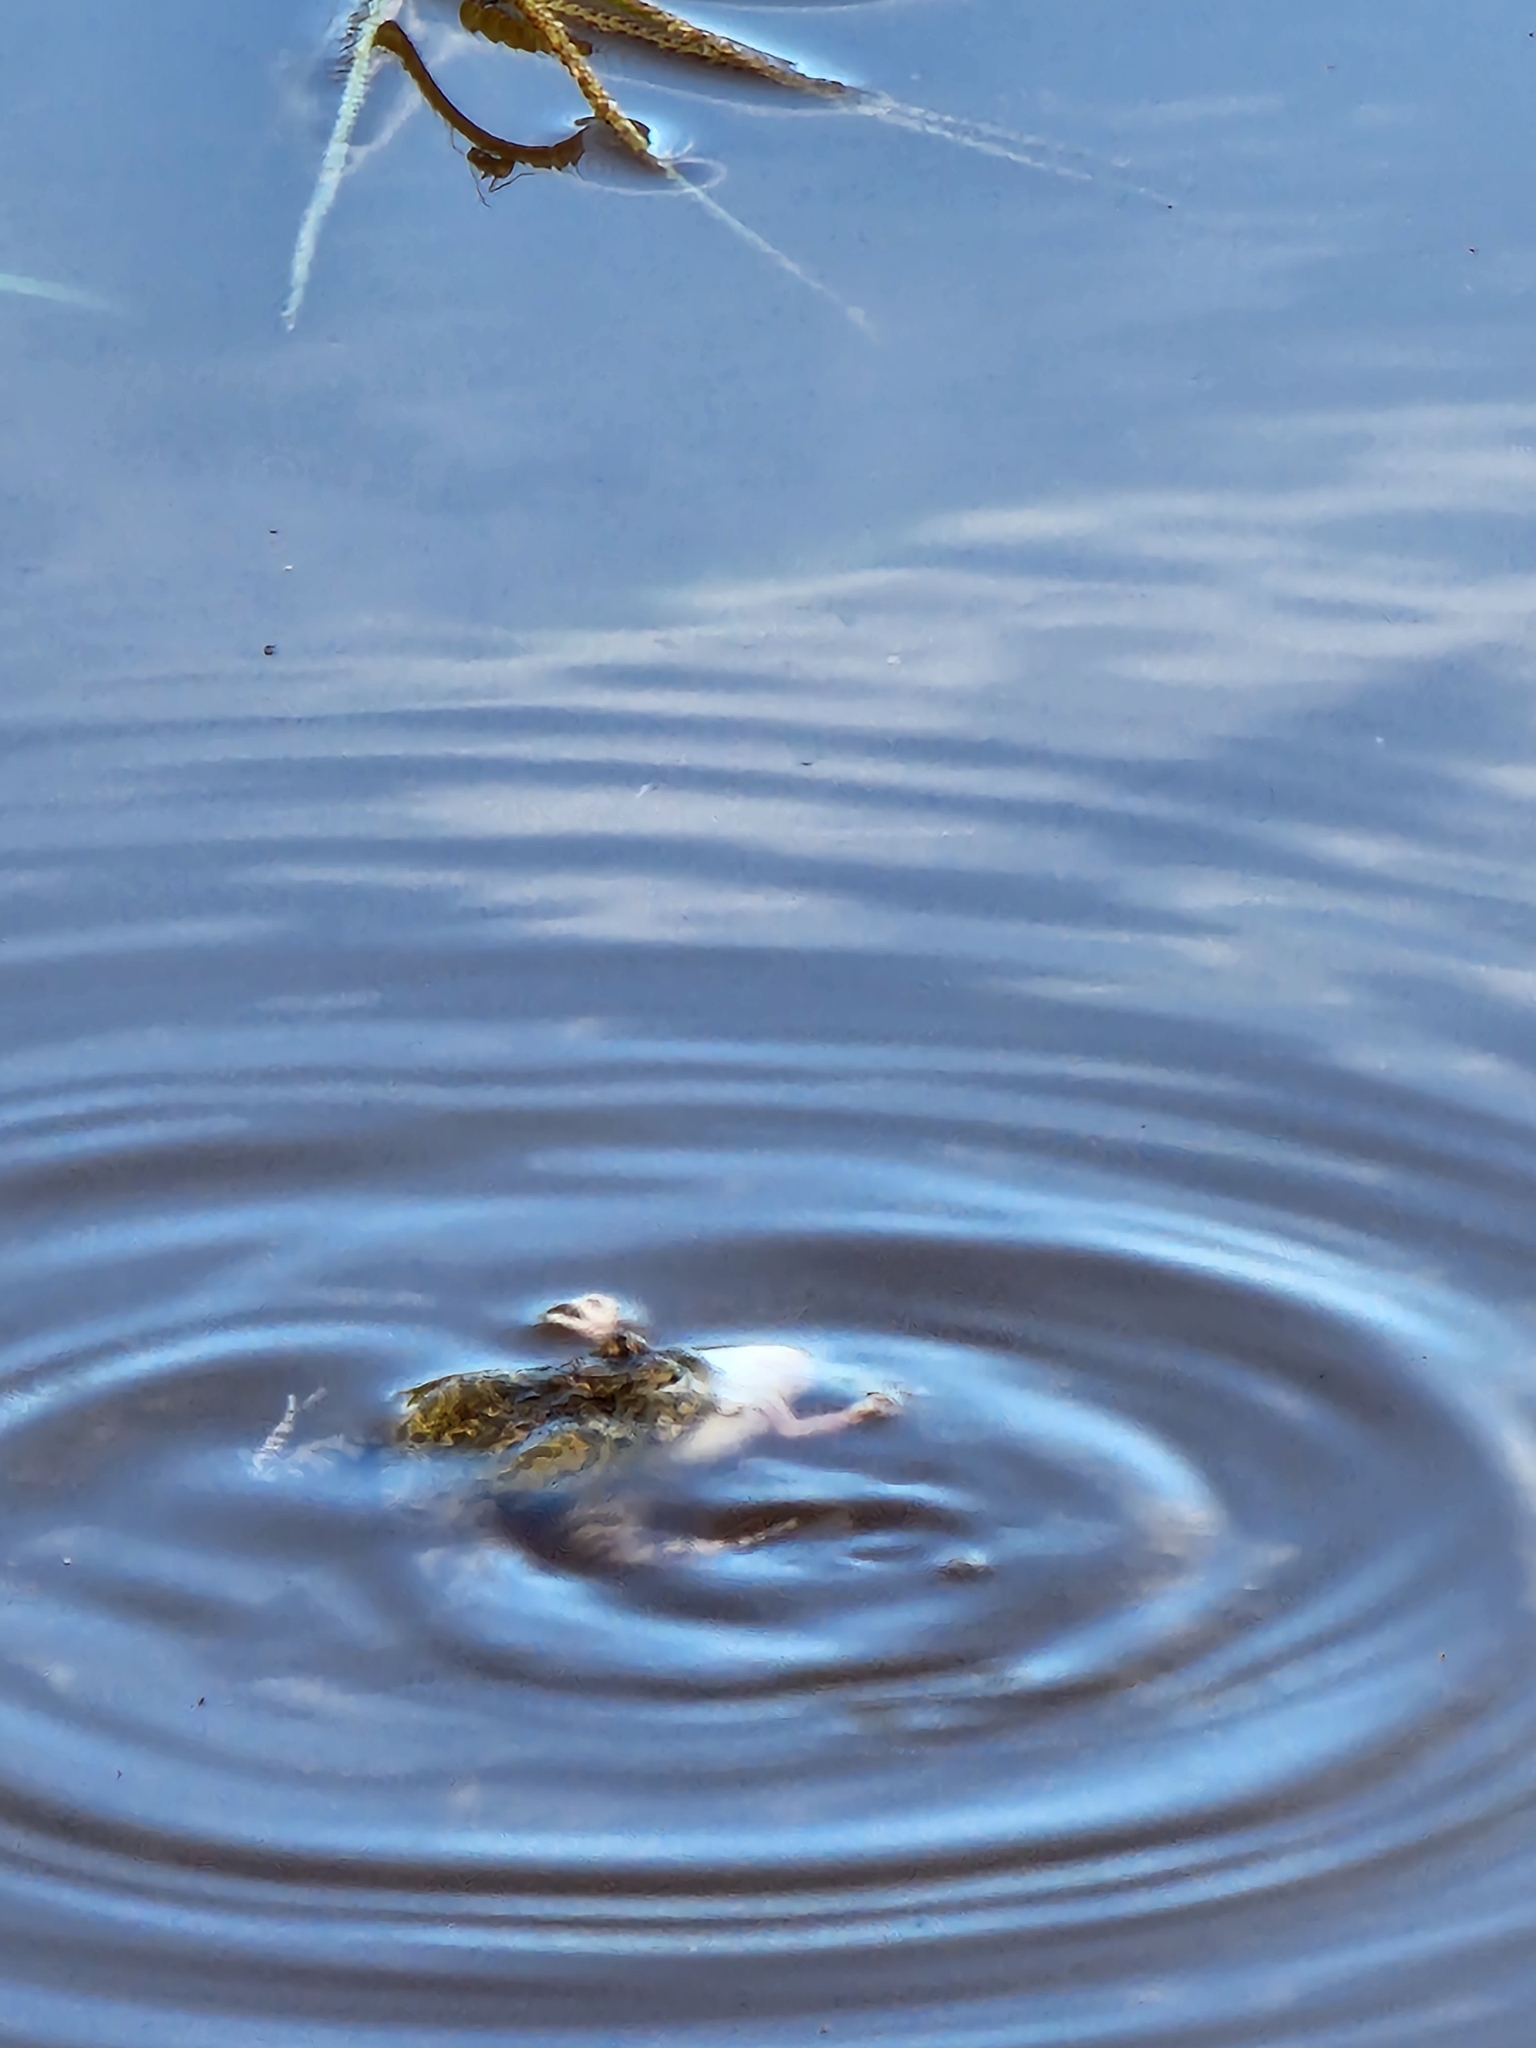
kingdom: Animalia
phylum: Chordata
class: Amphibia
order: Anura
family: Limnodynastidae
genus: Platyplectrum
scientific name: Platyplectrum ornatum
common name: Ornate burrowing frog
